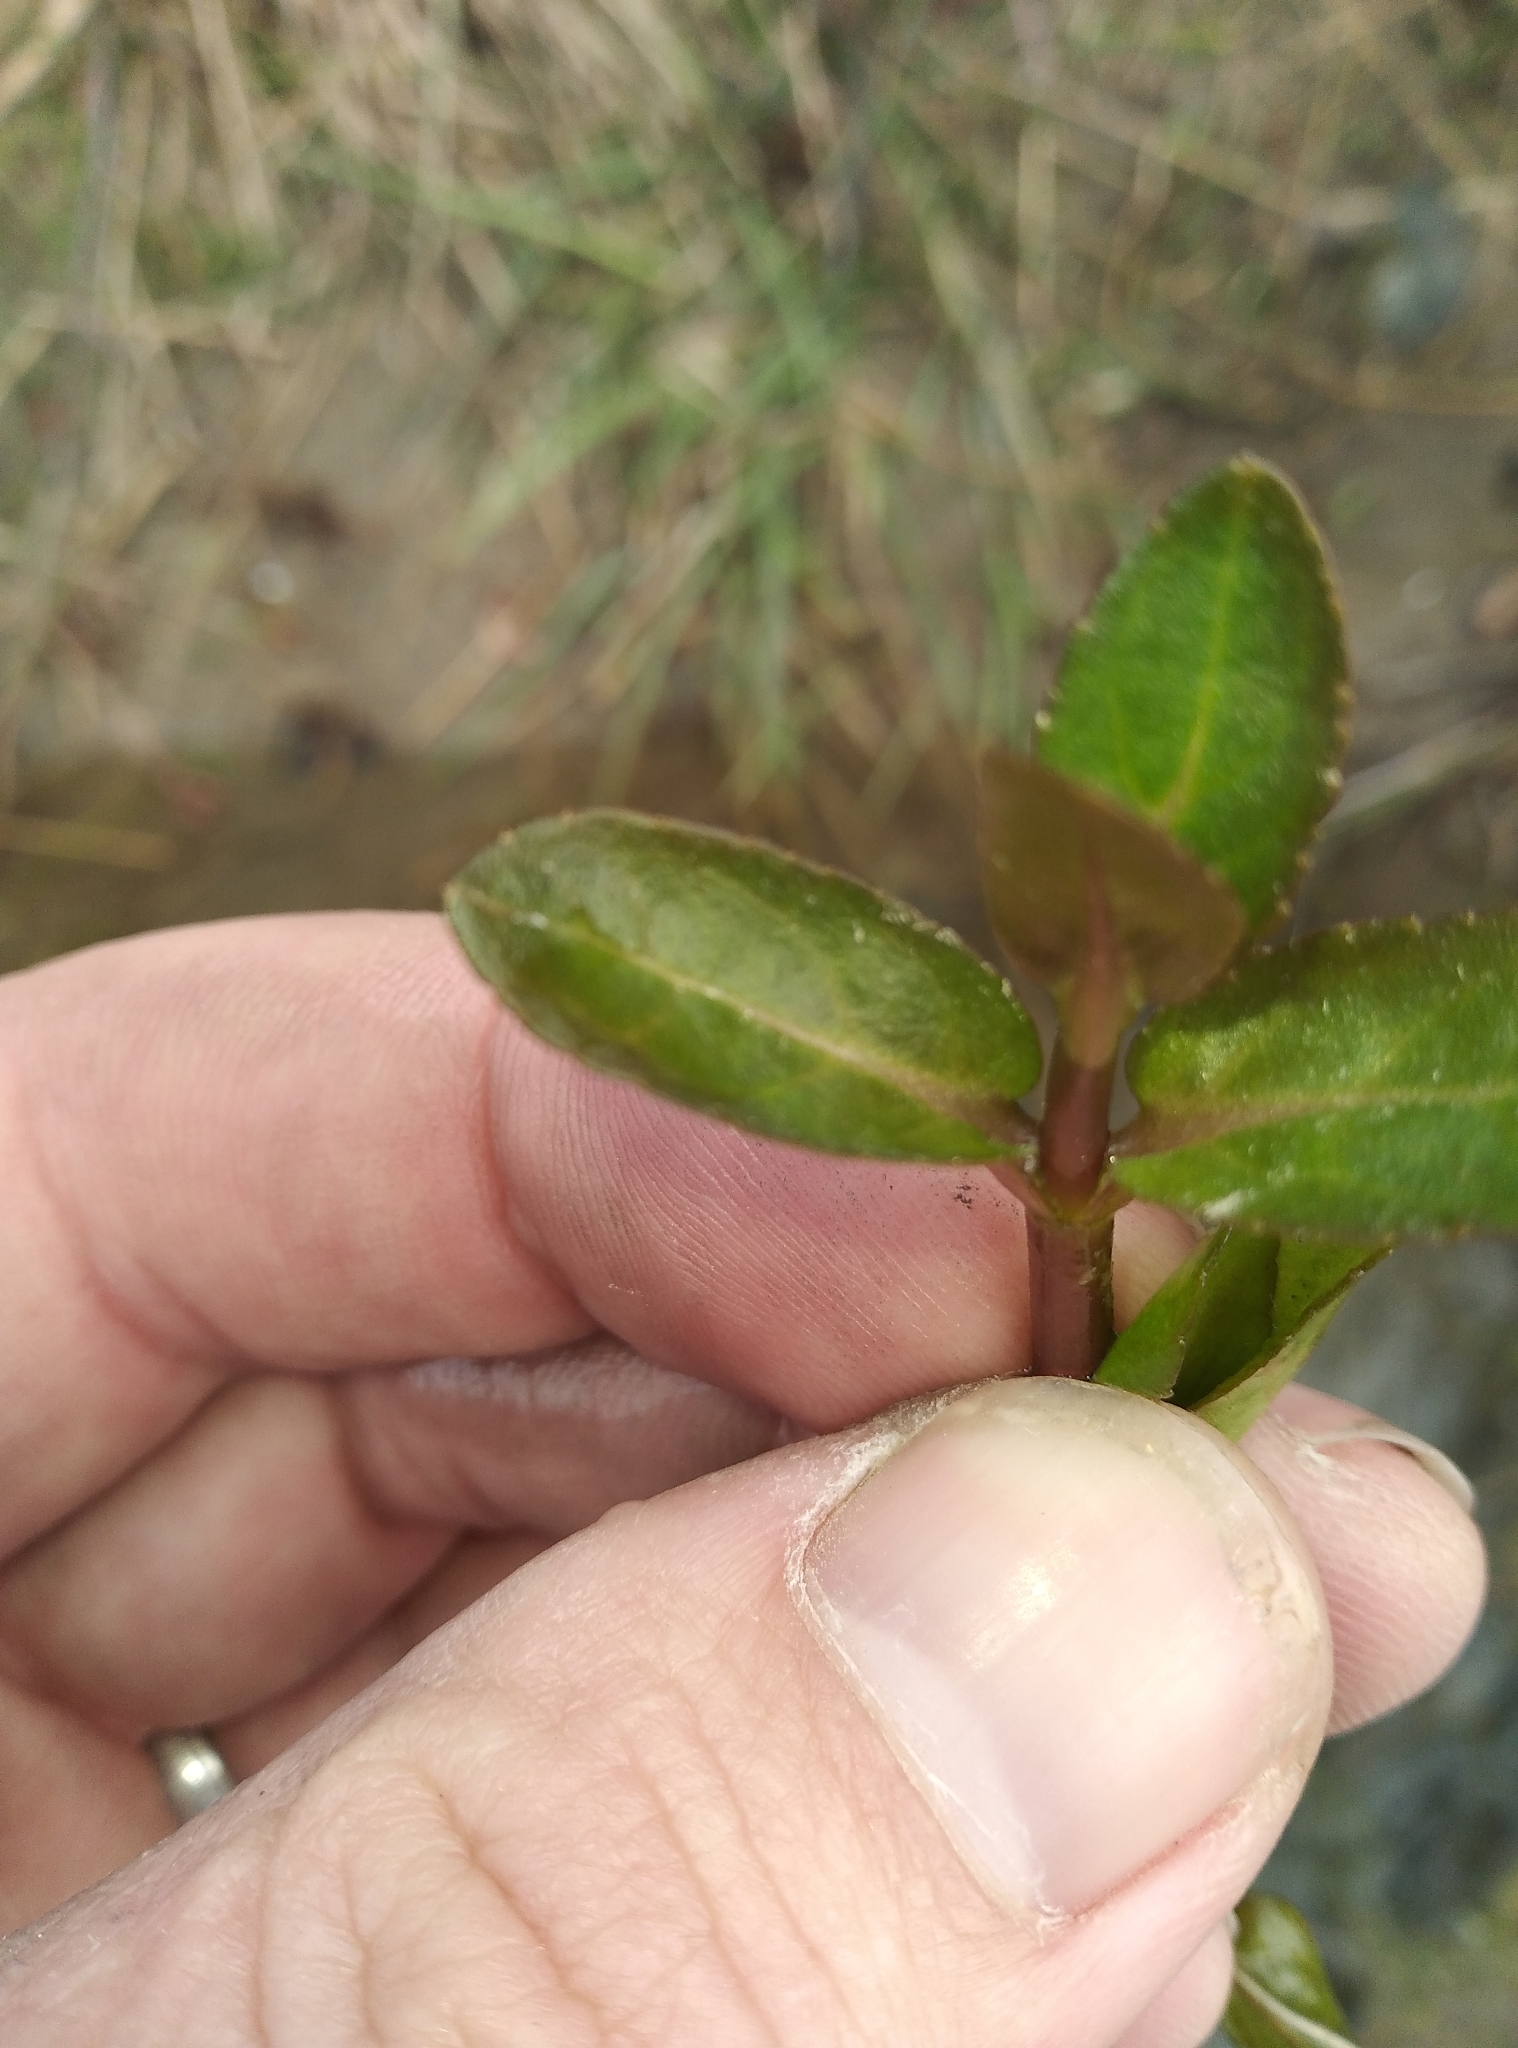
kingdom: Plantae
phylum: Tracheophyta
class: Magnoliopsida
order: Lamiales
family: Plantaginaceae
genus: Veronica
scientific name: Veronica americana
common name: American brooklime
